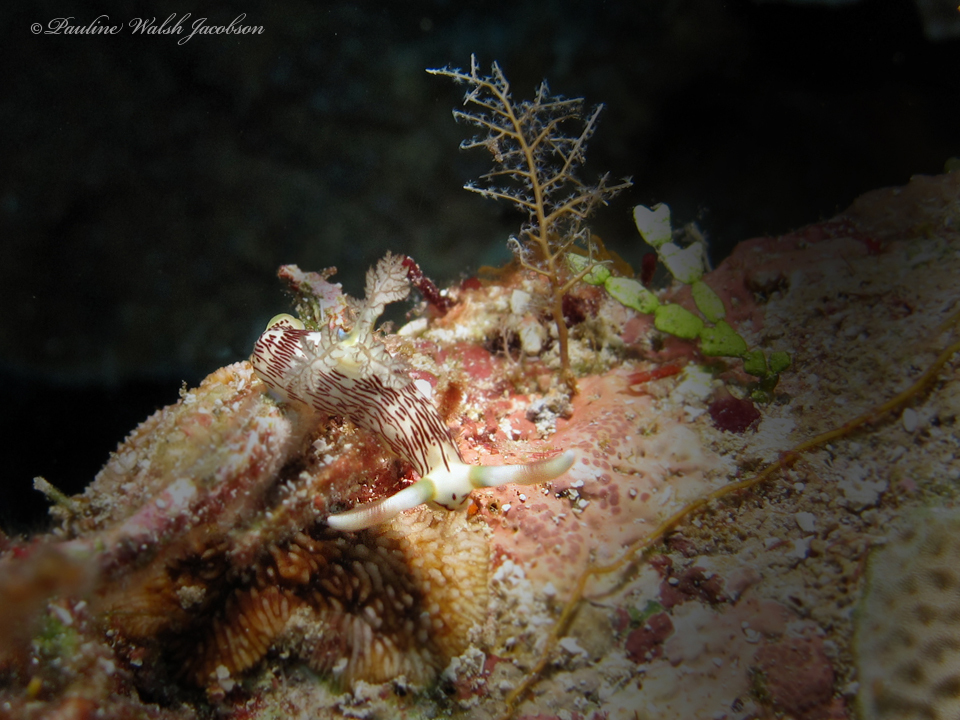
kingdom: Animalia
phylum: Mollusca
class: Gastropoda
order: Nudibranchia
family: Polyceridae
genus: Nembrotha
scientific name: Nembrotha lineolata
